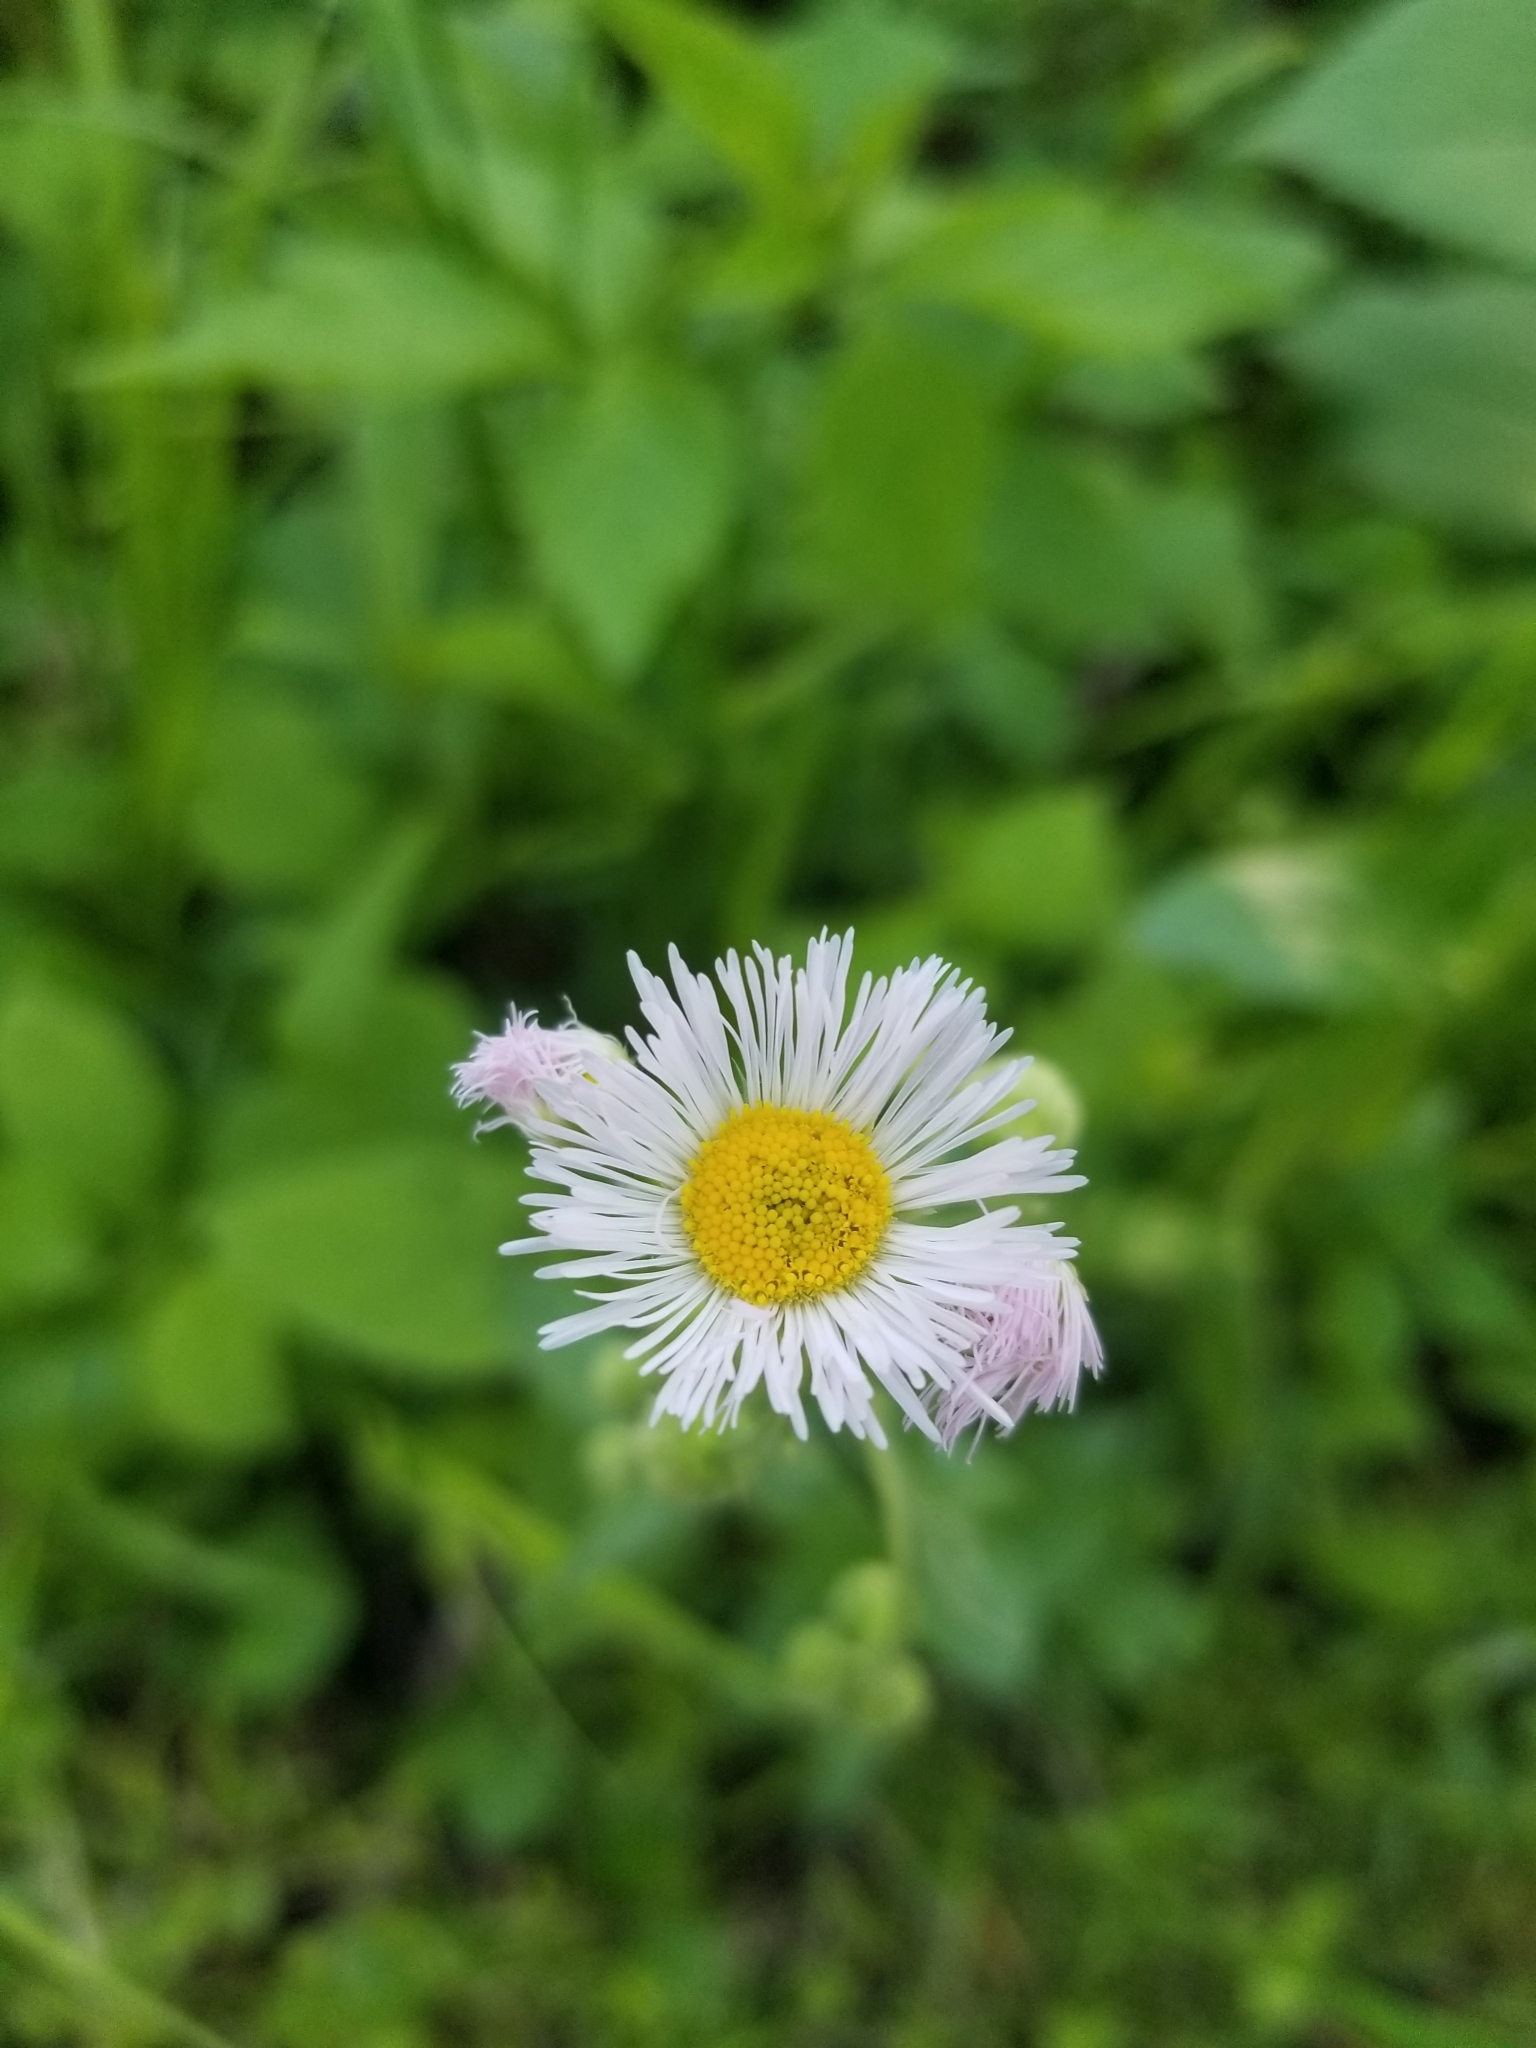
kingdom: Plantae
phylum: Tracheophyta
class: Magnoliopsida
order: Asterales
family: Asteraceae
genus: Erigeron
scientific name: Erigeron philadelphicus
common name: Robin's-plantain
